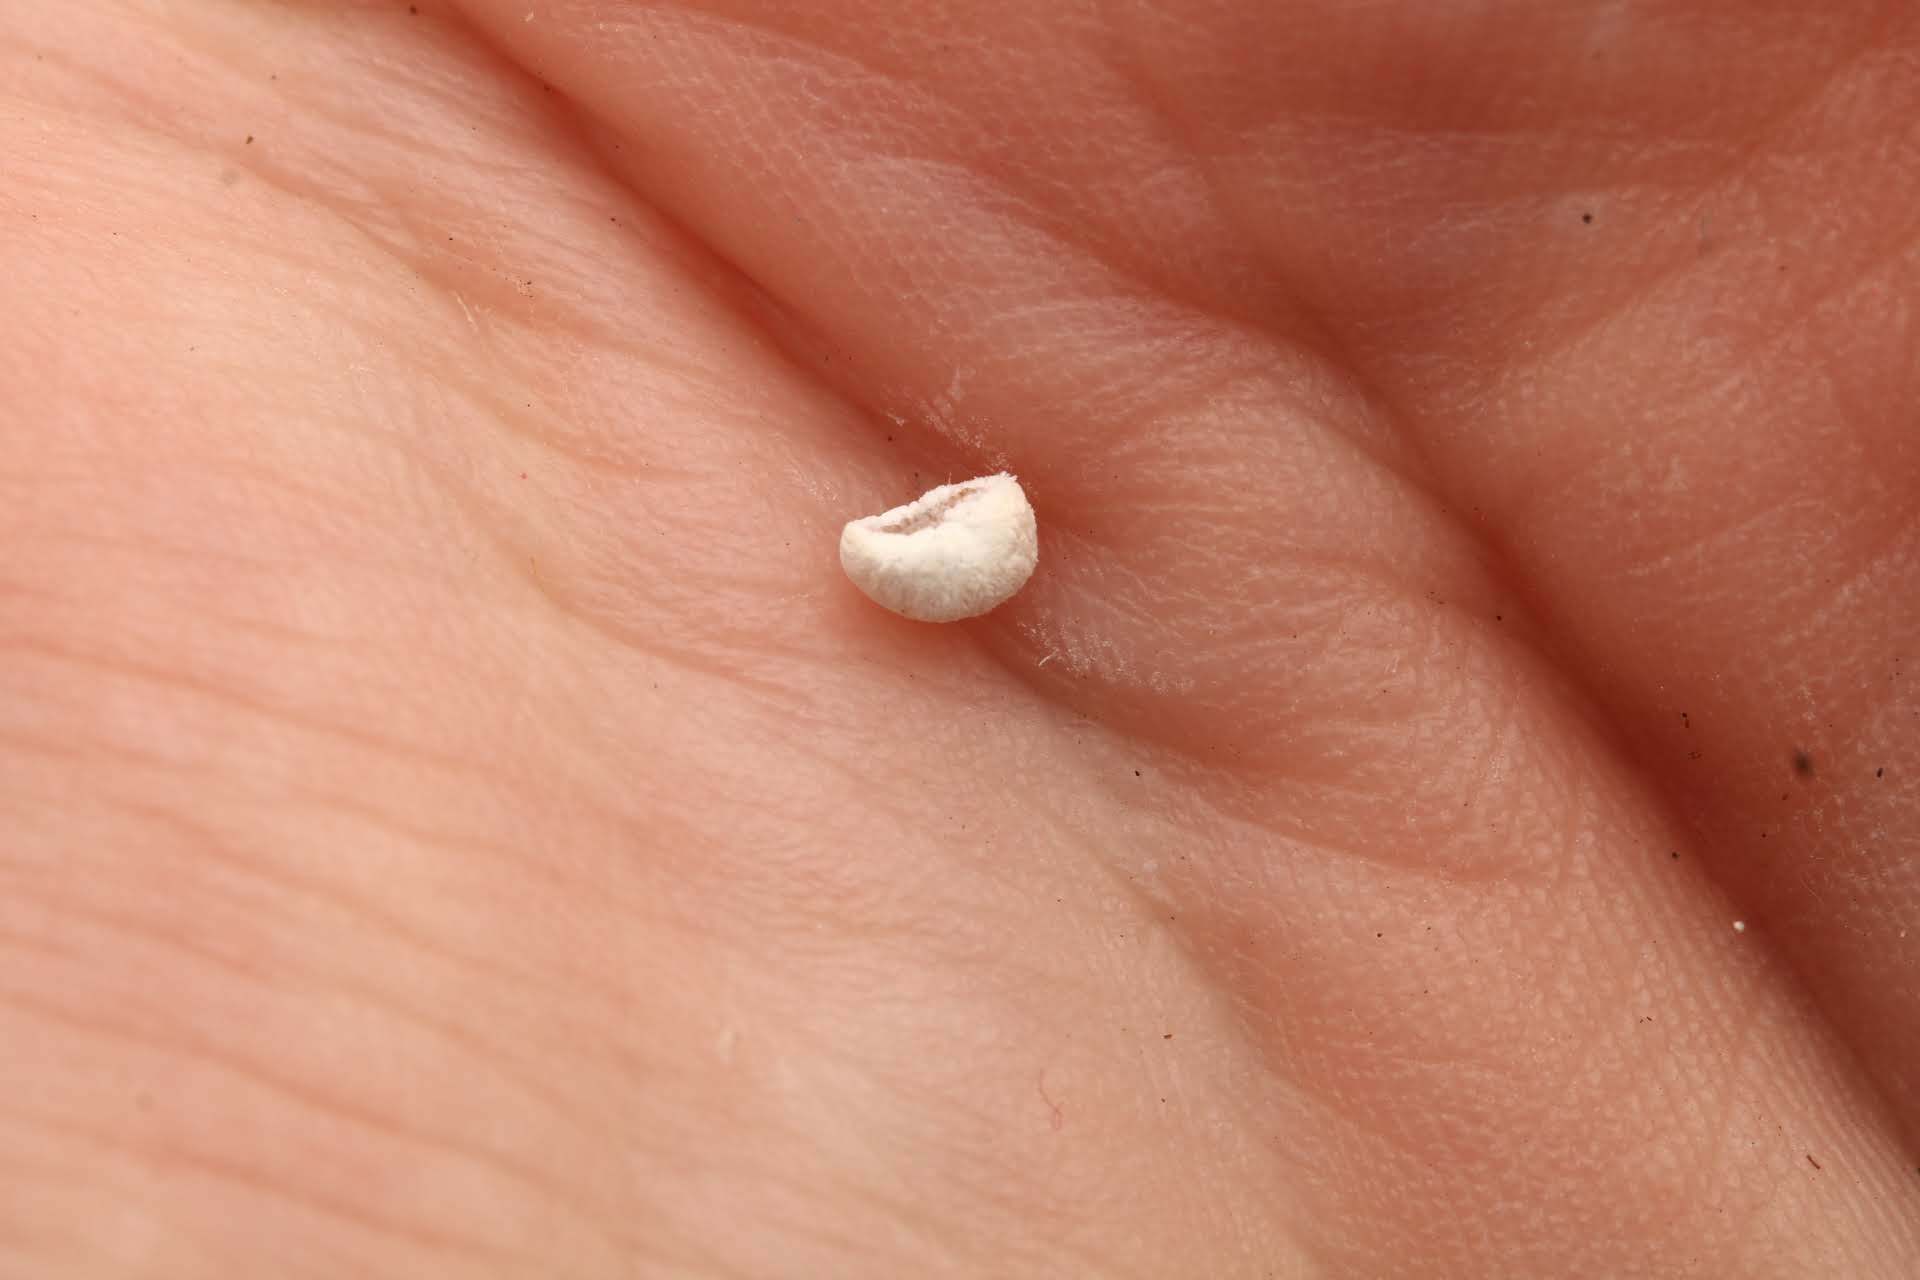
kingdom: Animalia
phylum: Arthropoda
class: Insecta
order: Lepidoptera
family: Epipyropidae
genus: Fulgoraecia
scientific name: Fulgoraecia exigua
